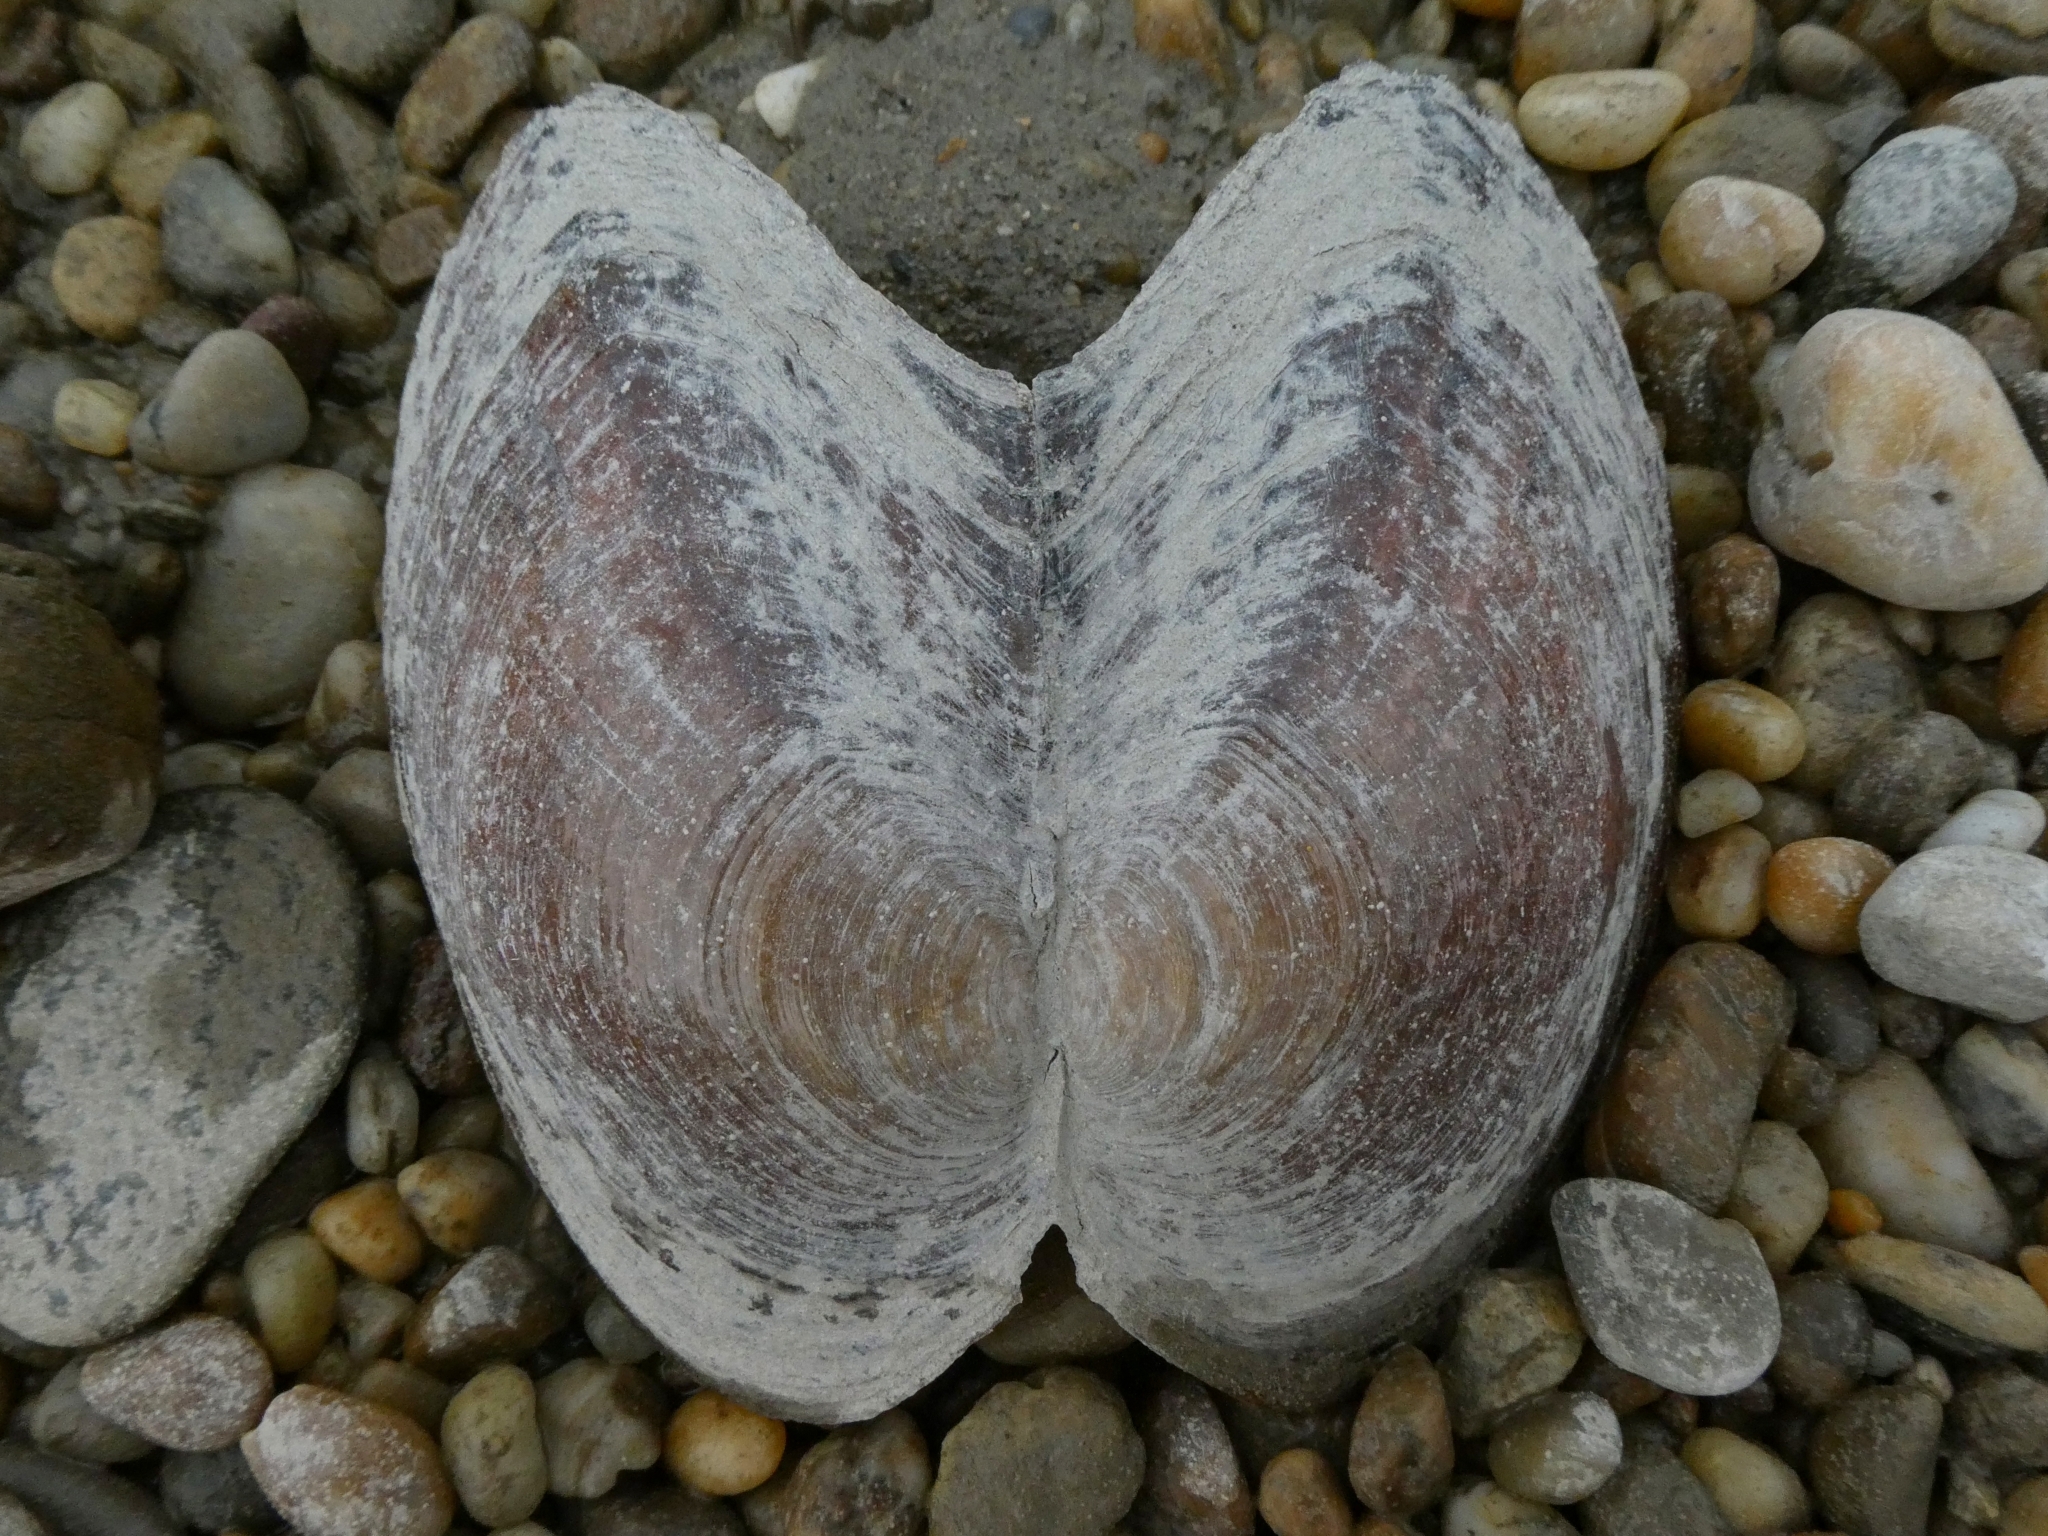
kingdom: Animalia
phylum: Mollusca
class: Bivalvia
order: Unionida
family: Unionidae
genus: Sinanodonta
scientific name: Sinanodonta woodiana
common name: Chinese pond mussel
